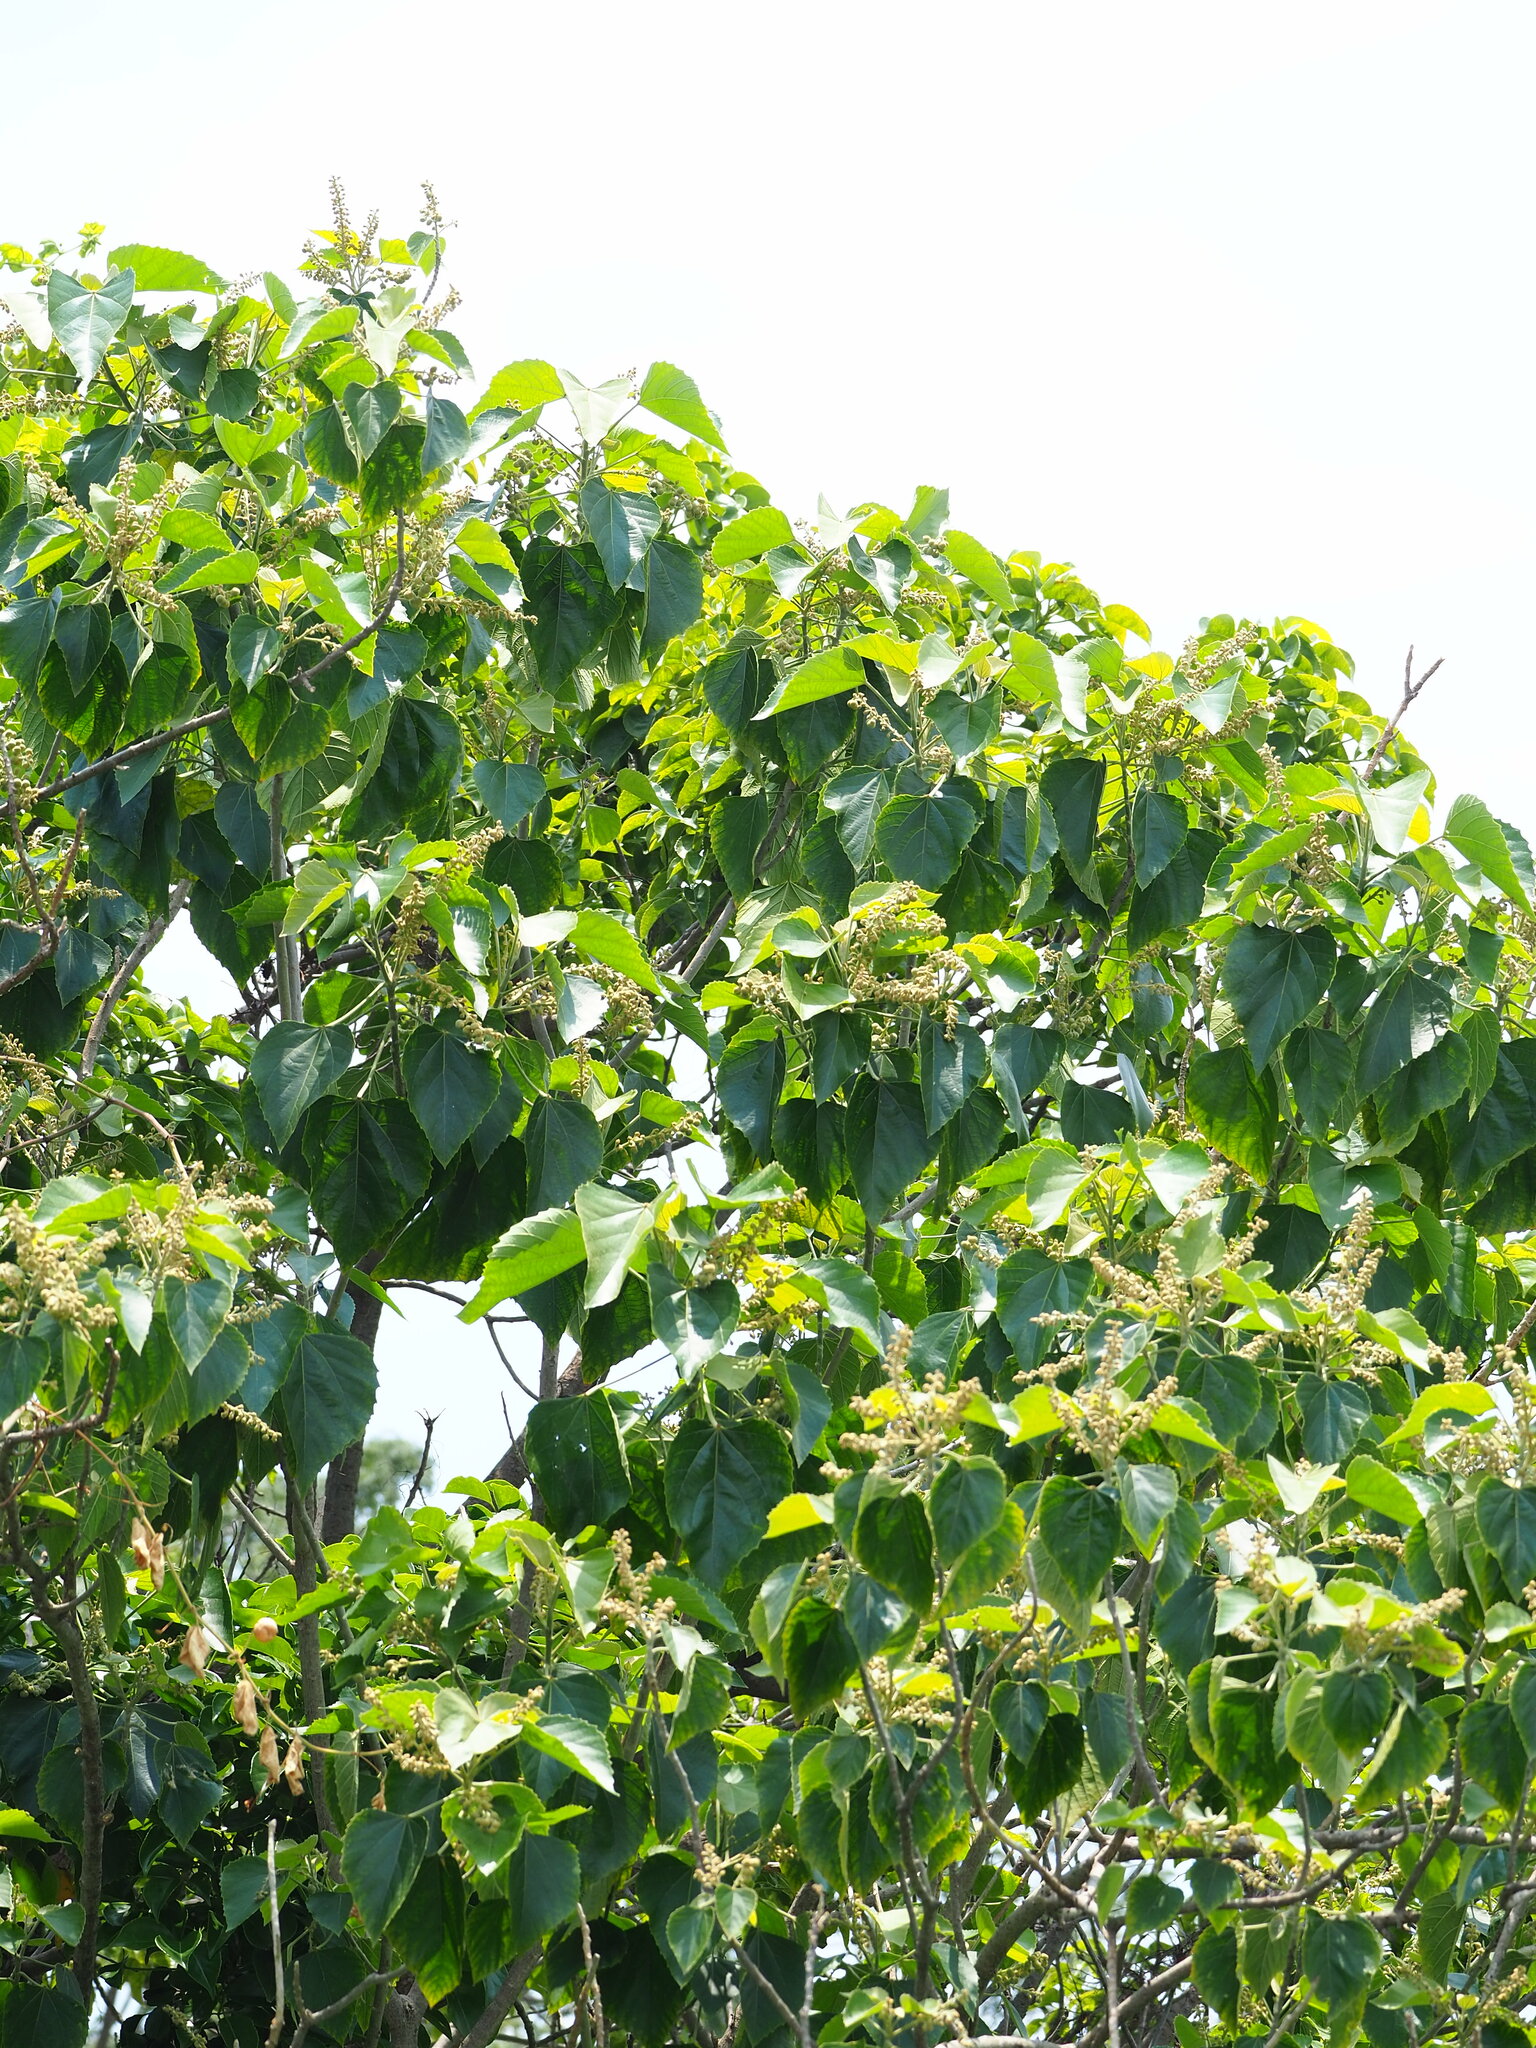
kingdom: Plantae
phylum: Tracheophyta
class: Magnoliopsida
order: Malpighiales
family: Euphorbiaceae
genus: Melanolepis
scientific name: Melanolepis multiglandulosa
